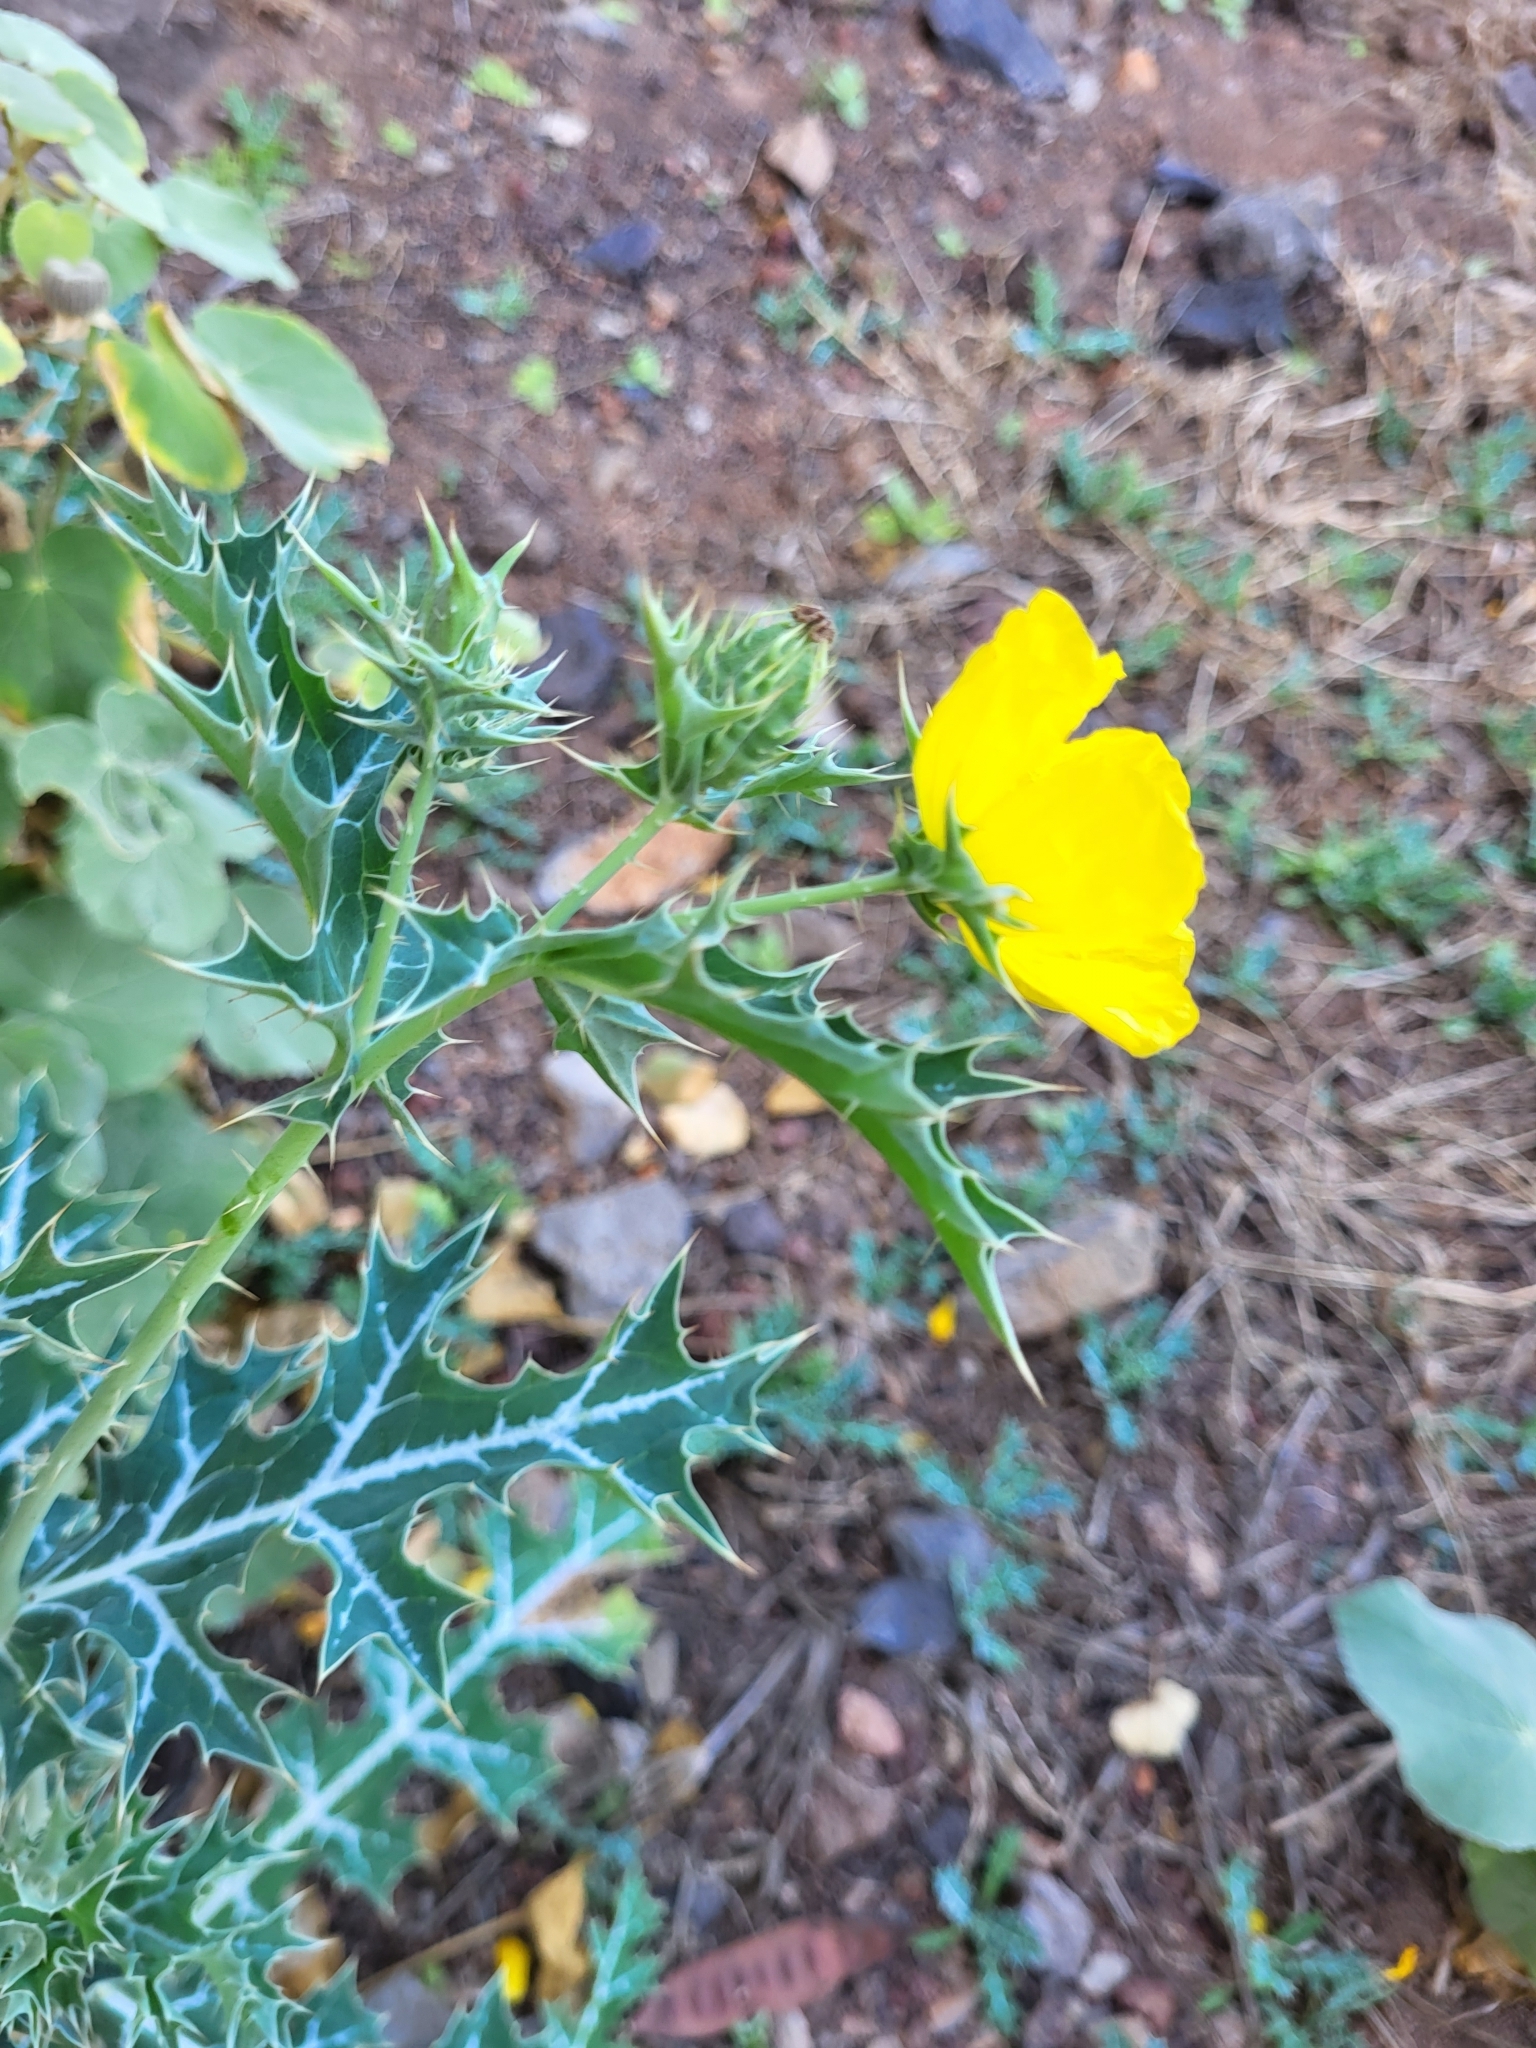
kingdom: Plantae
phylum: Tracheophyta
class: Magnoliopsida
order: Ranunculales
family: Papaveraceae
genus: Argemone
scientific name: Argemone mexicana
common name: Mexican poppy
